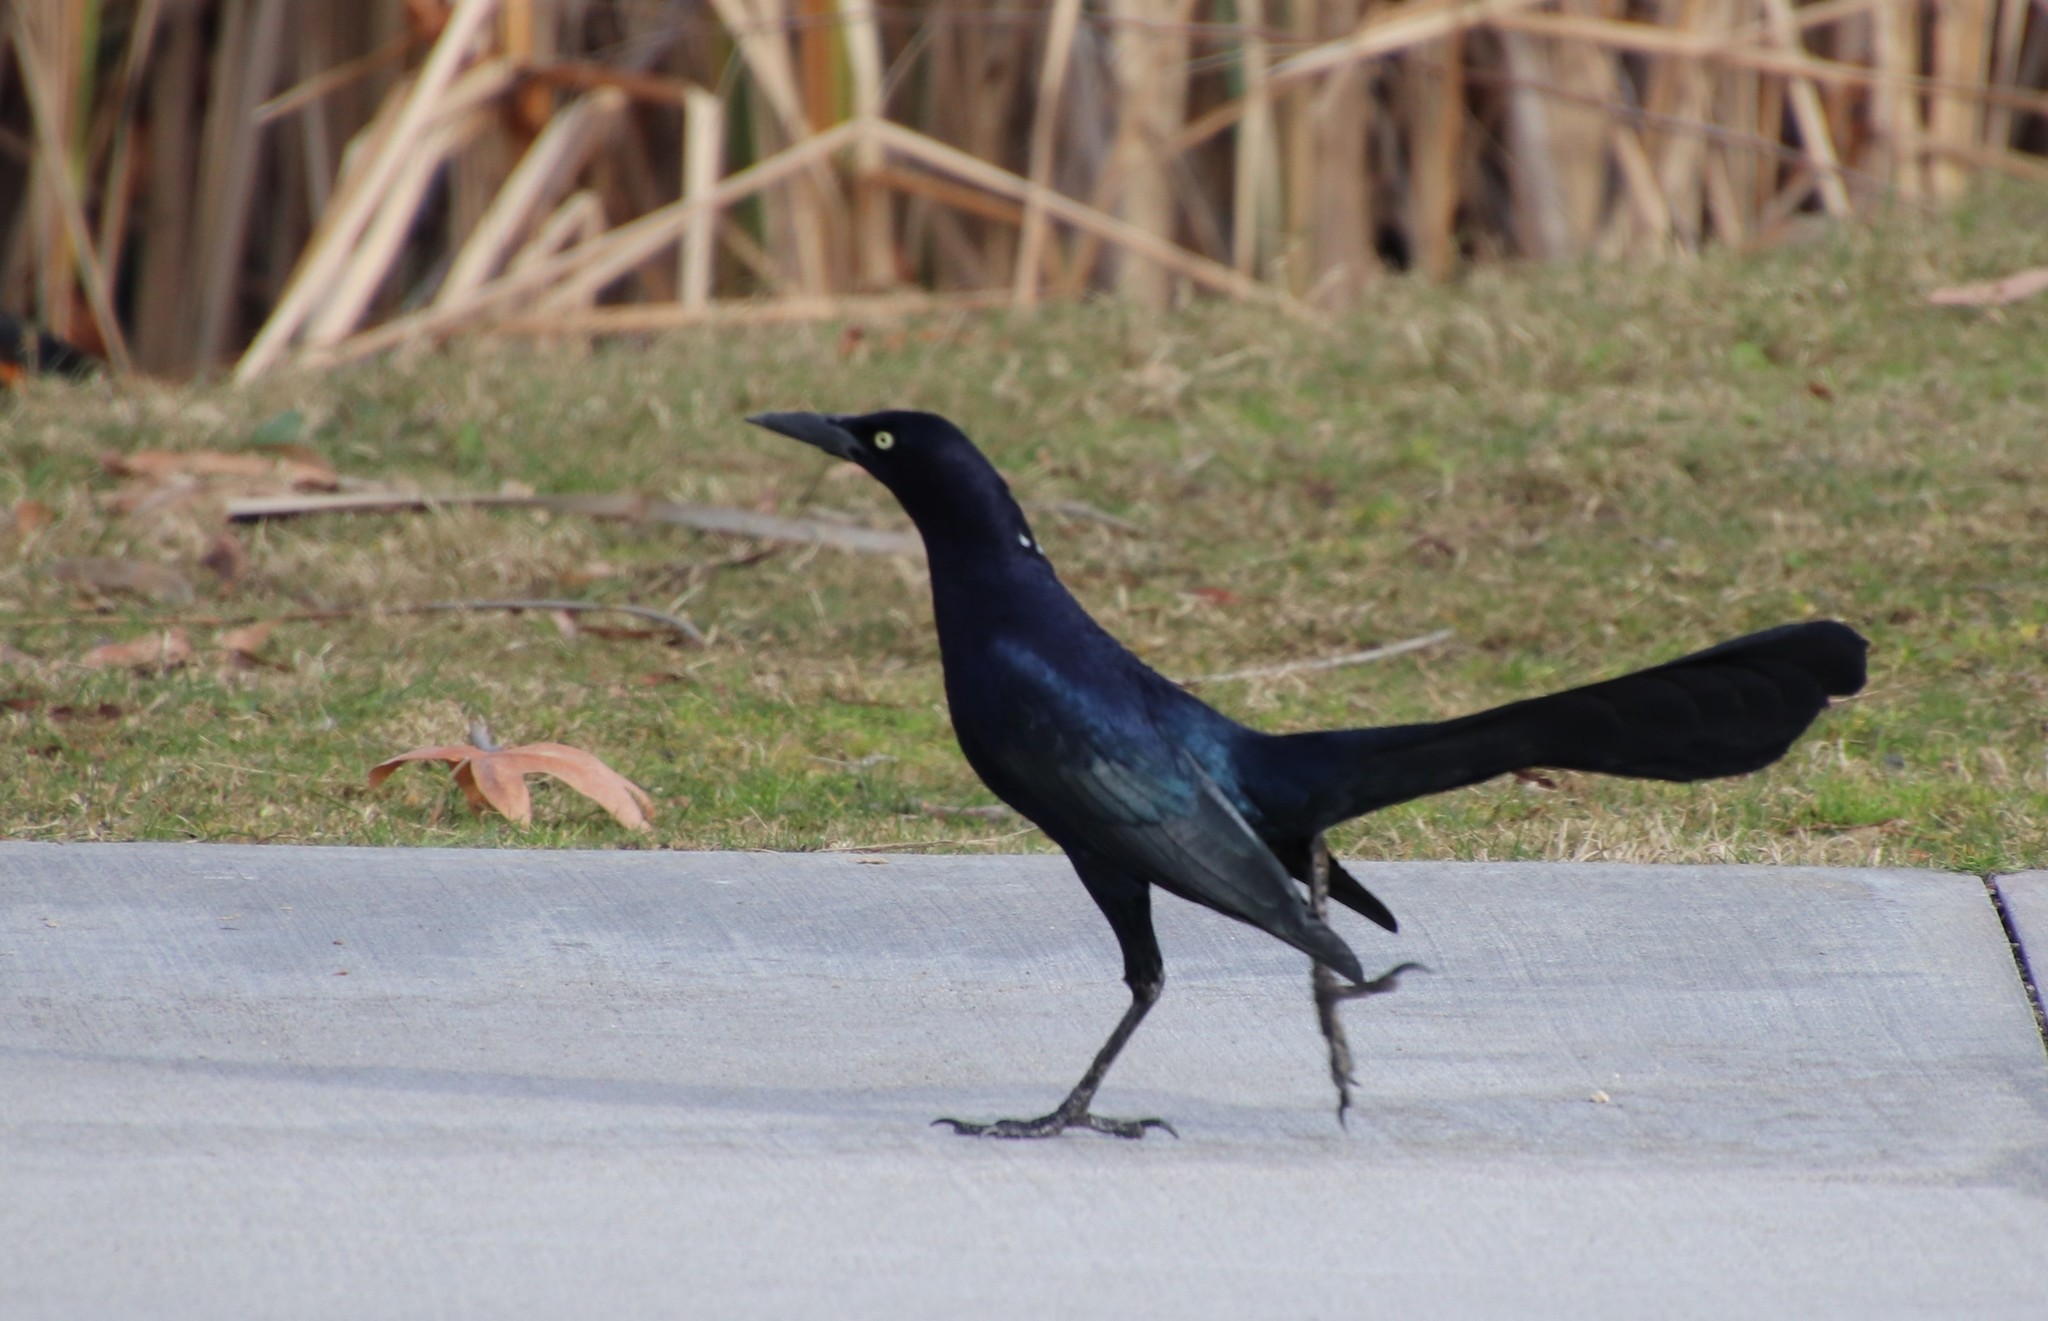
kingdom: Animalia
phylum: Chordata
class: Aves
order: Passeriformes
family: Icteridae
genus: Quiscalus
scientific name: Quiscalus mexicanus
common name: Great-tailed grackle
